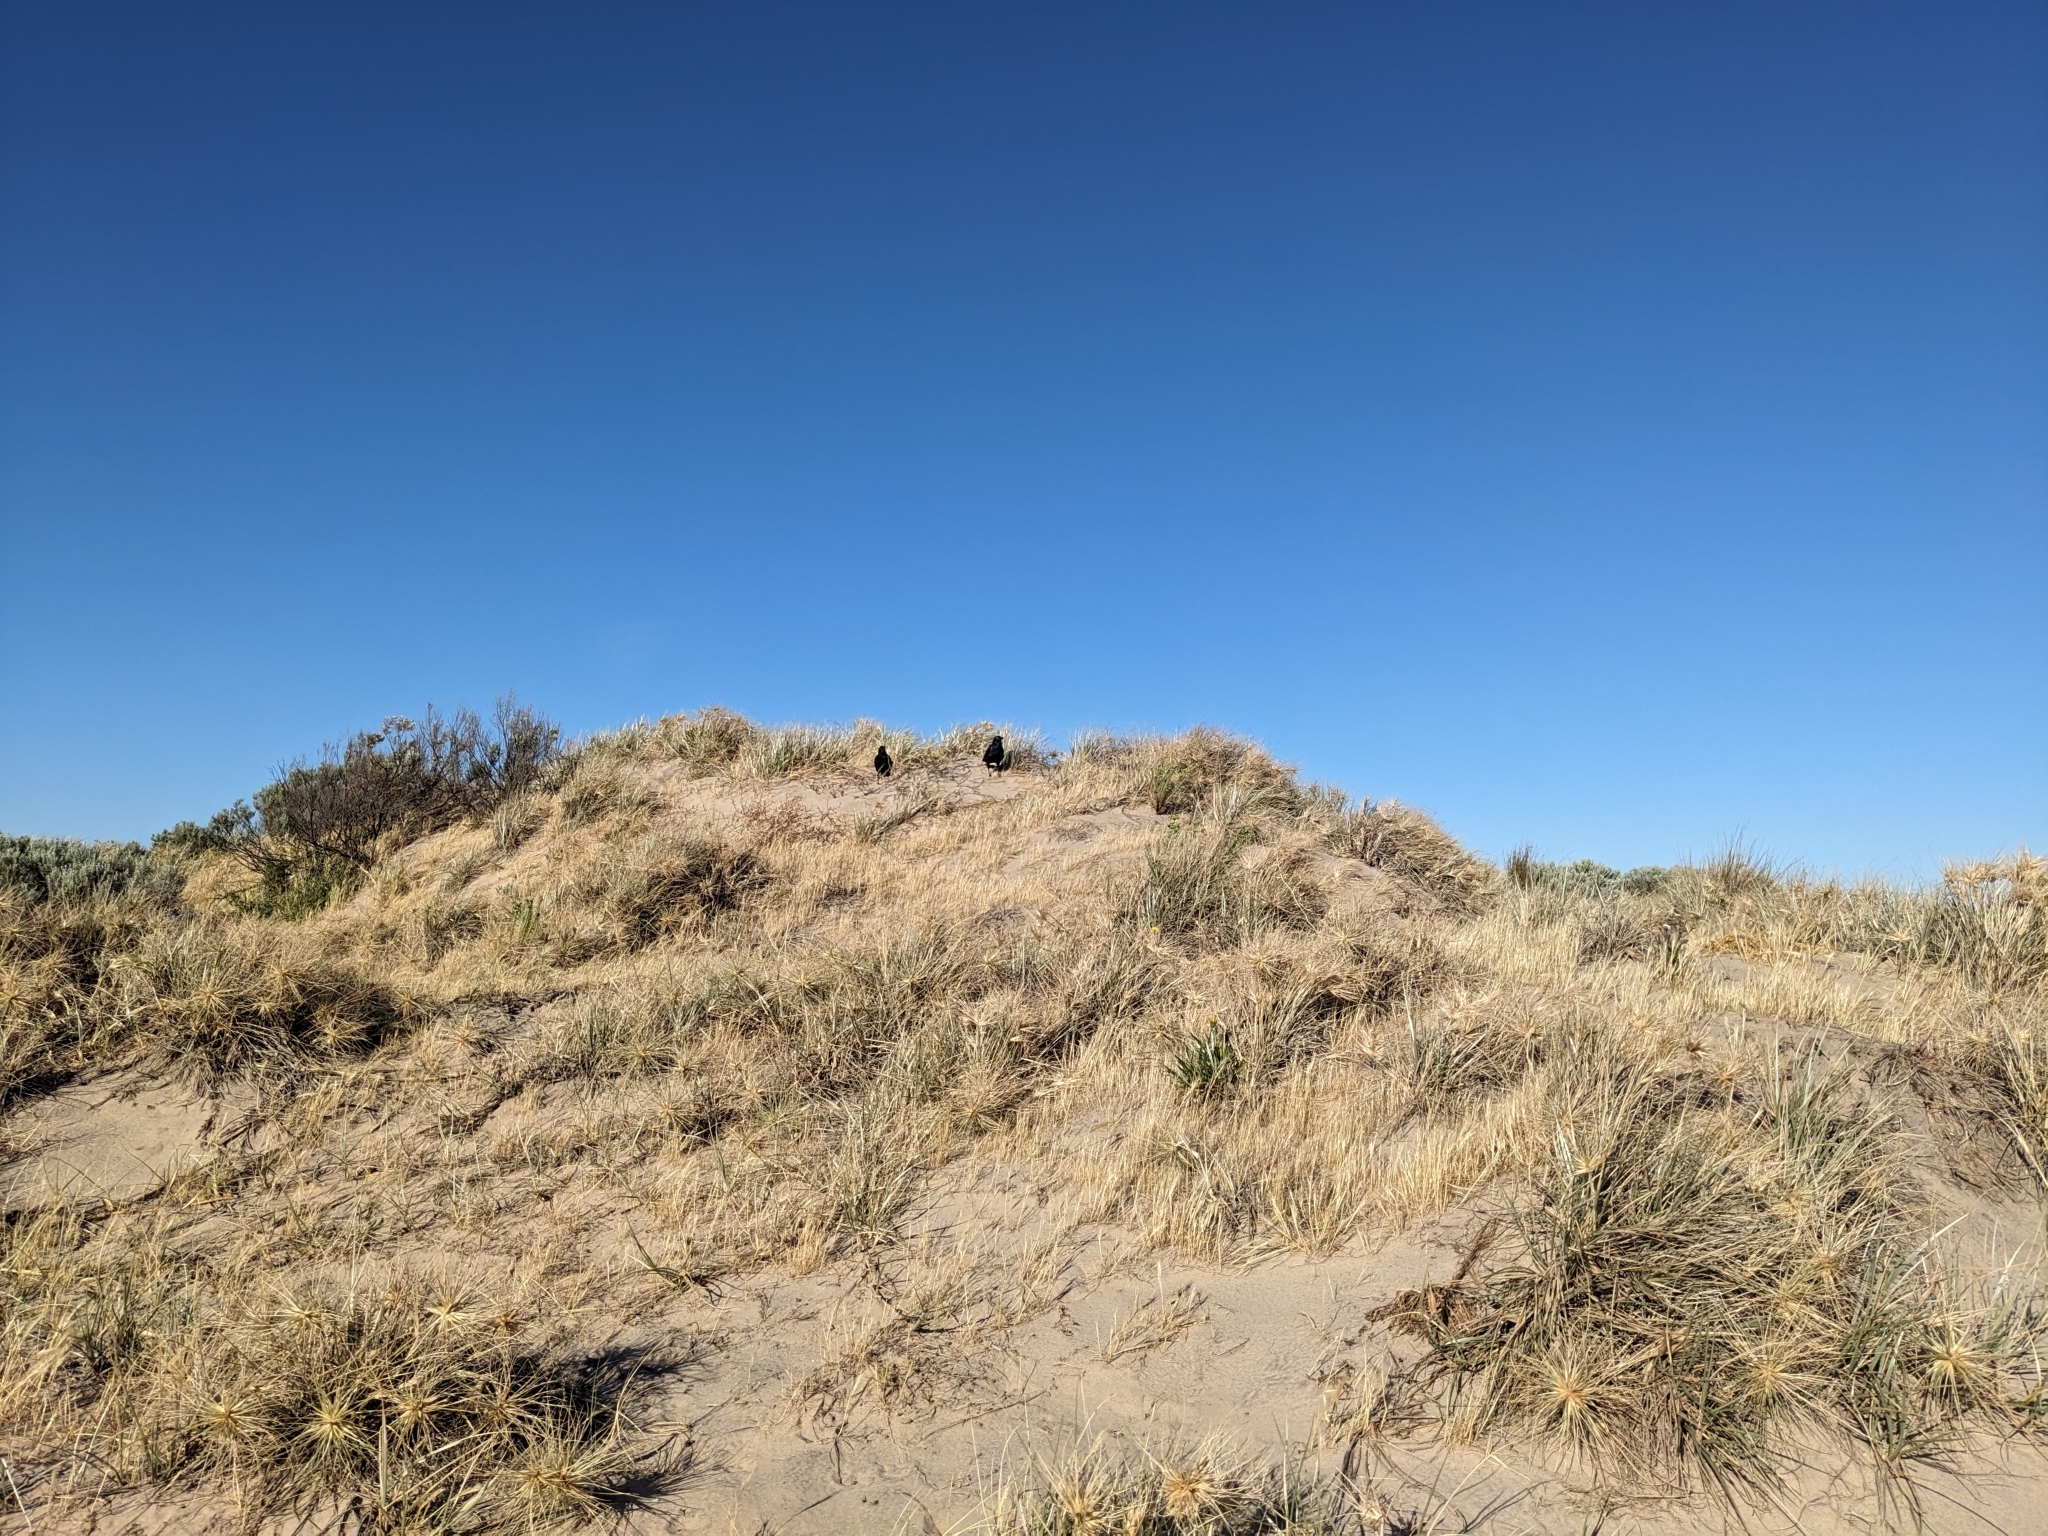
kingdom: Animalia
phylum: Chordata
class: Aves
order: Passeriformes
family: Corvidae
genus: Corvus
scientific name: Corvus mellori
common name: Little raven
